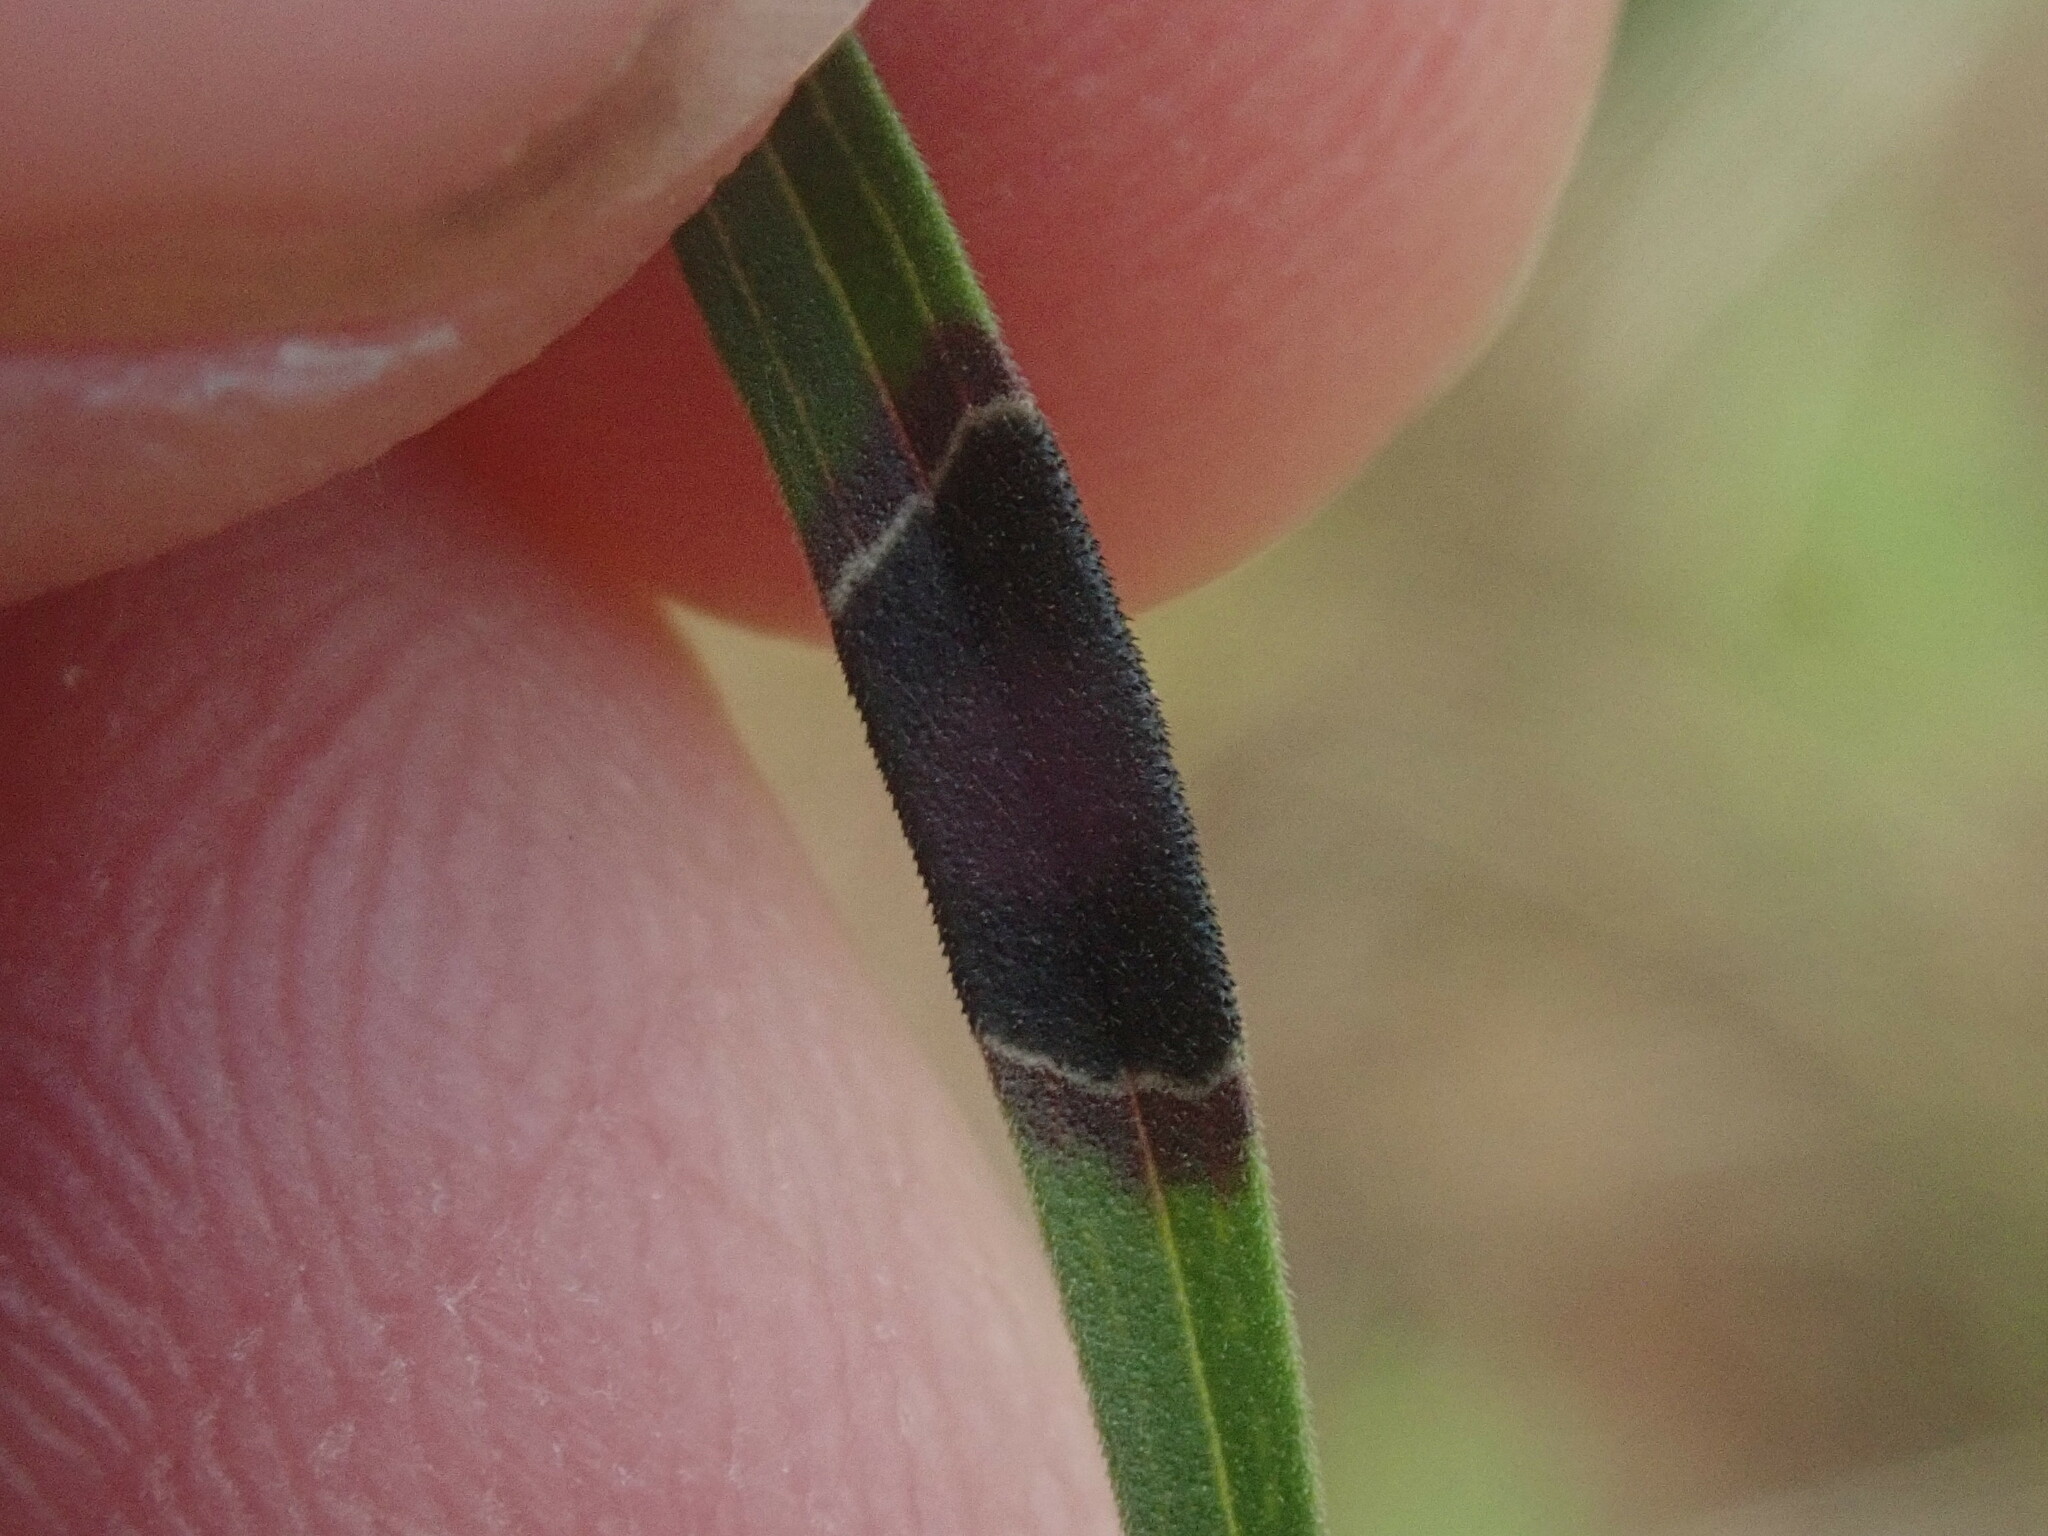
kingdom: Animalia
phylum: Arthropoda
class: Insecta
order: Diptera
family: Cecidomyiidae
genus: Asteromyia
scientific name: Asteromyia euthamiae
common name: Euthamia leaf gall midge
